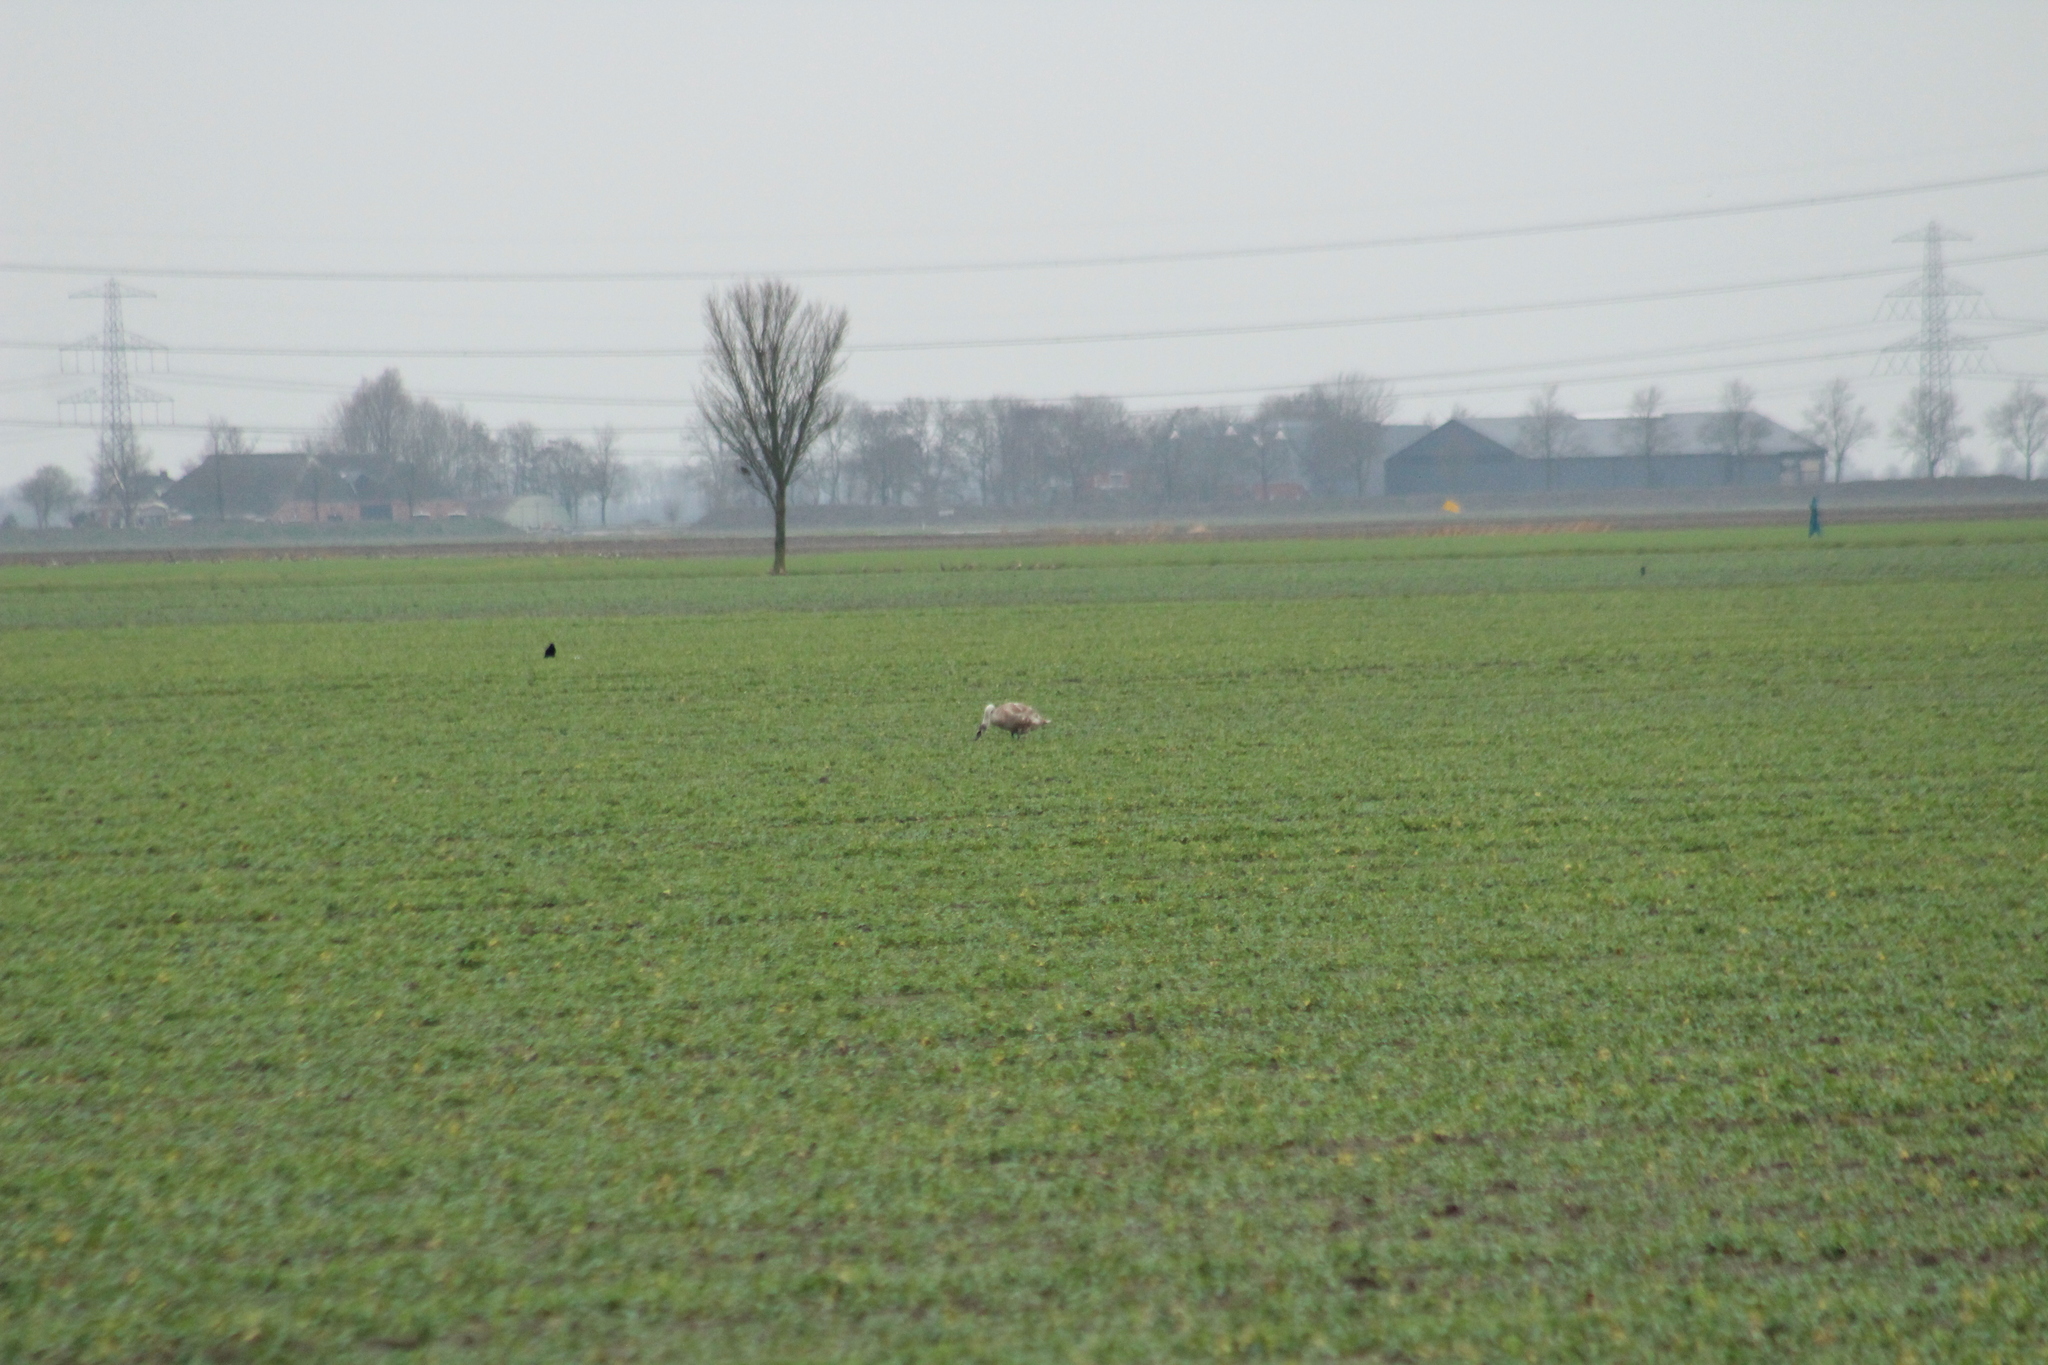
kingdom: Animalia
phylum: Chordata
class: Aves
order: Anseriformes
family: Anatidae
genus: Cygnus
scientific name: Cygnus olor
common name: Mute swan
